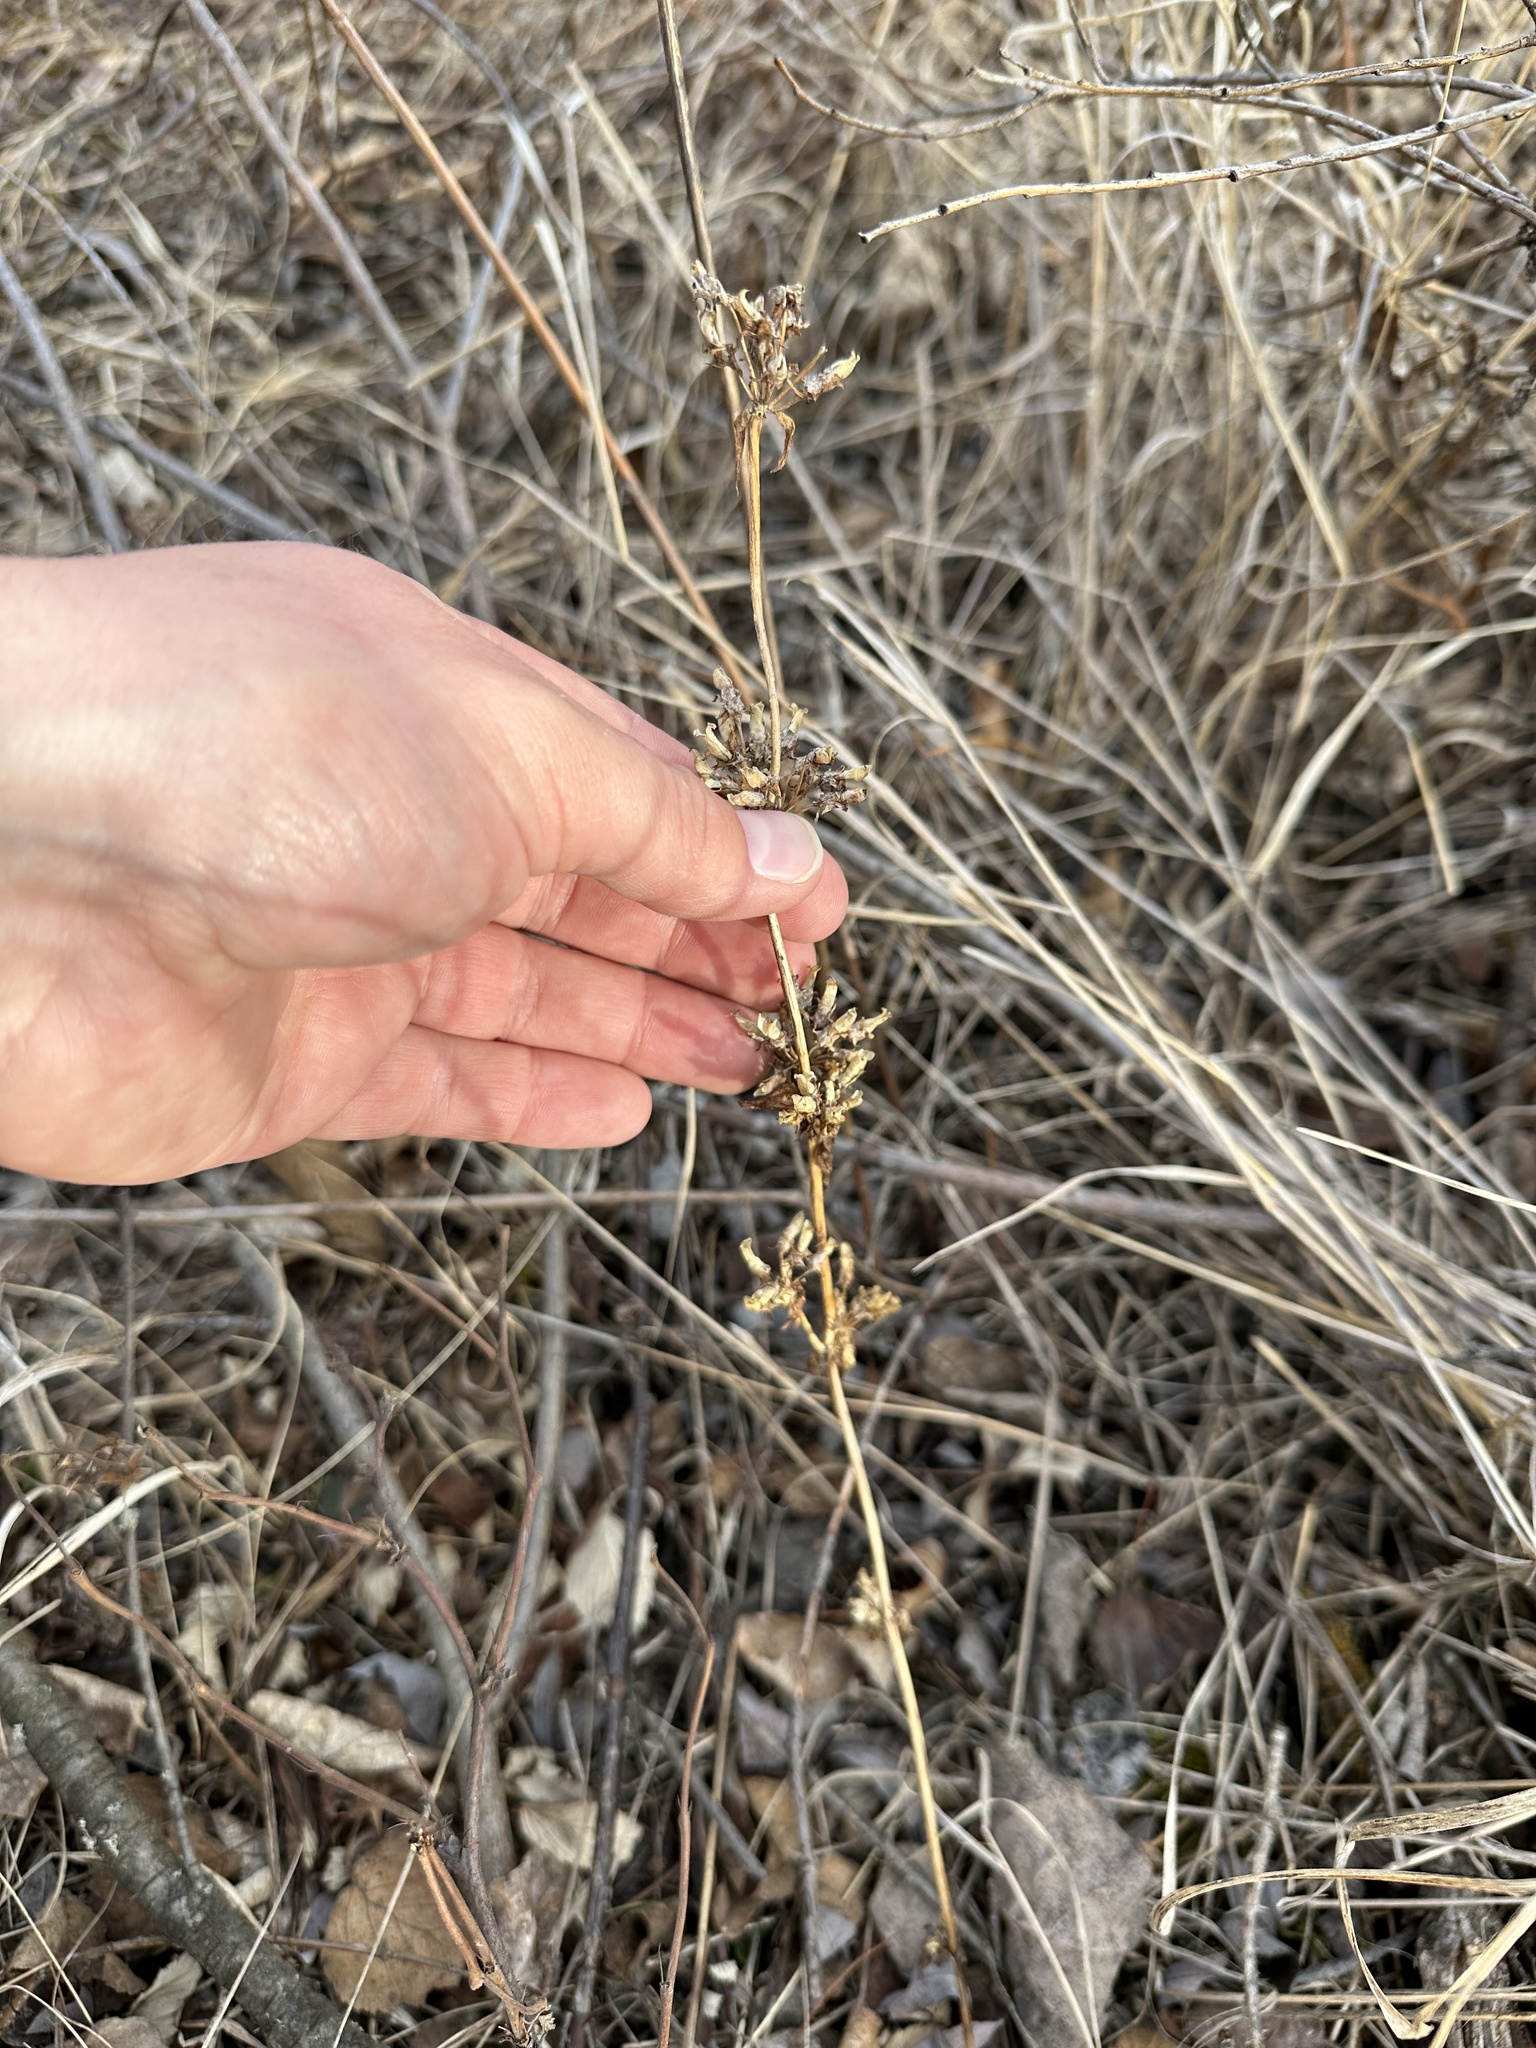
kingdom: Plantae
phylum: Tracheophyta
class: Magnoliopsida
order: Gentianales
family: Gentianaceae
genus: Halenia
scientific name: Halenia deflexa
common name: American spurred gentian
